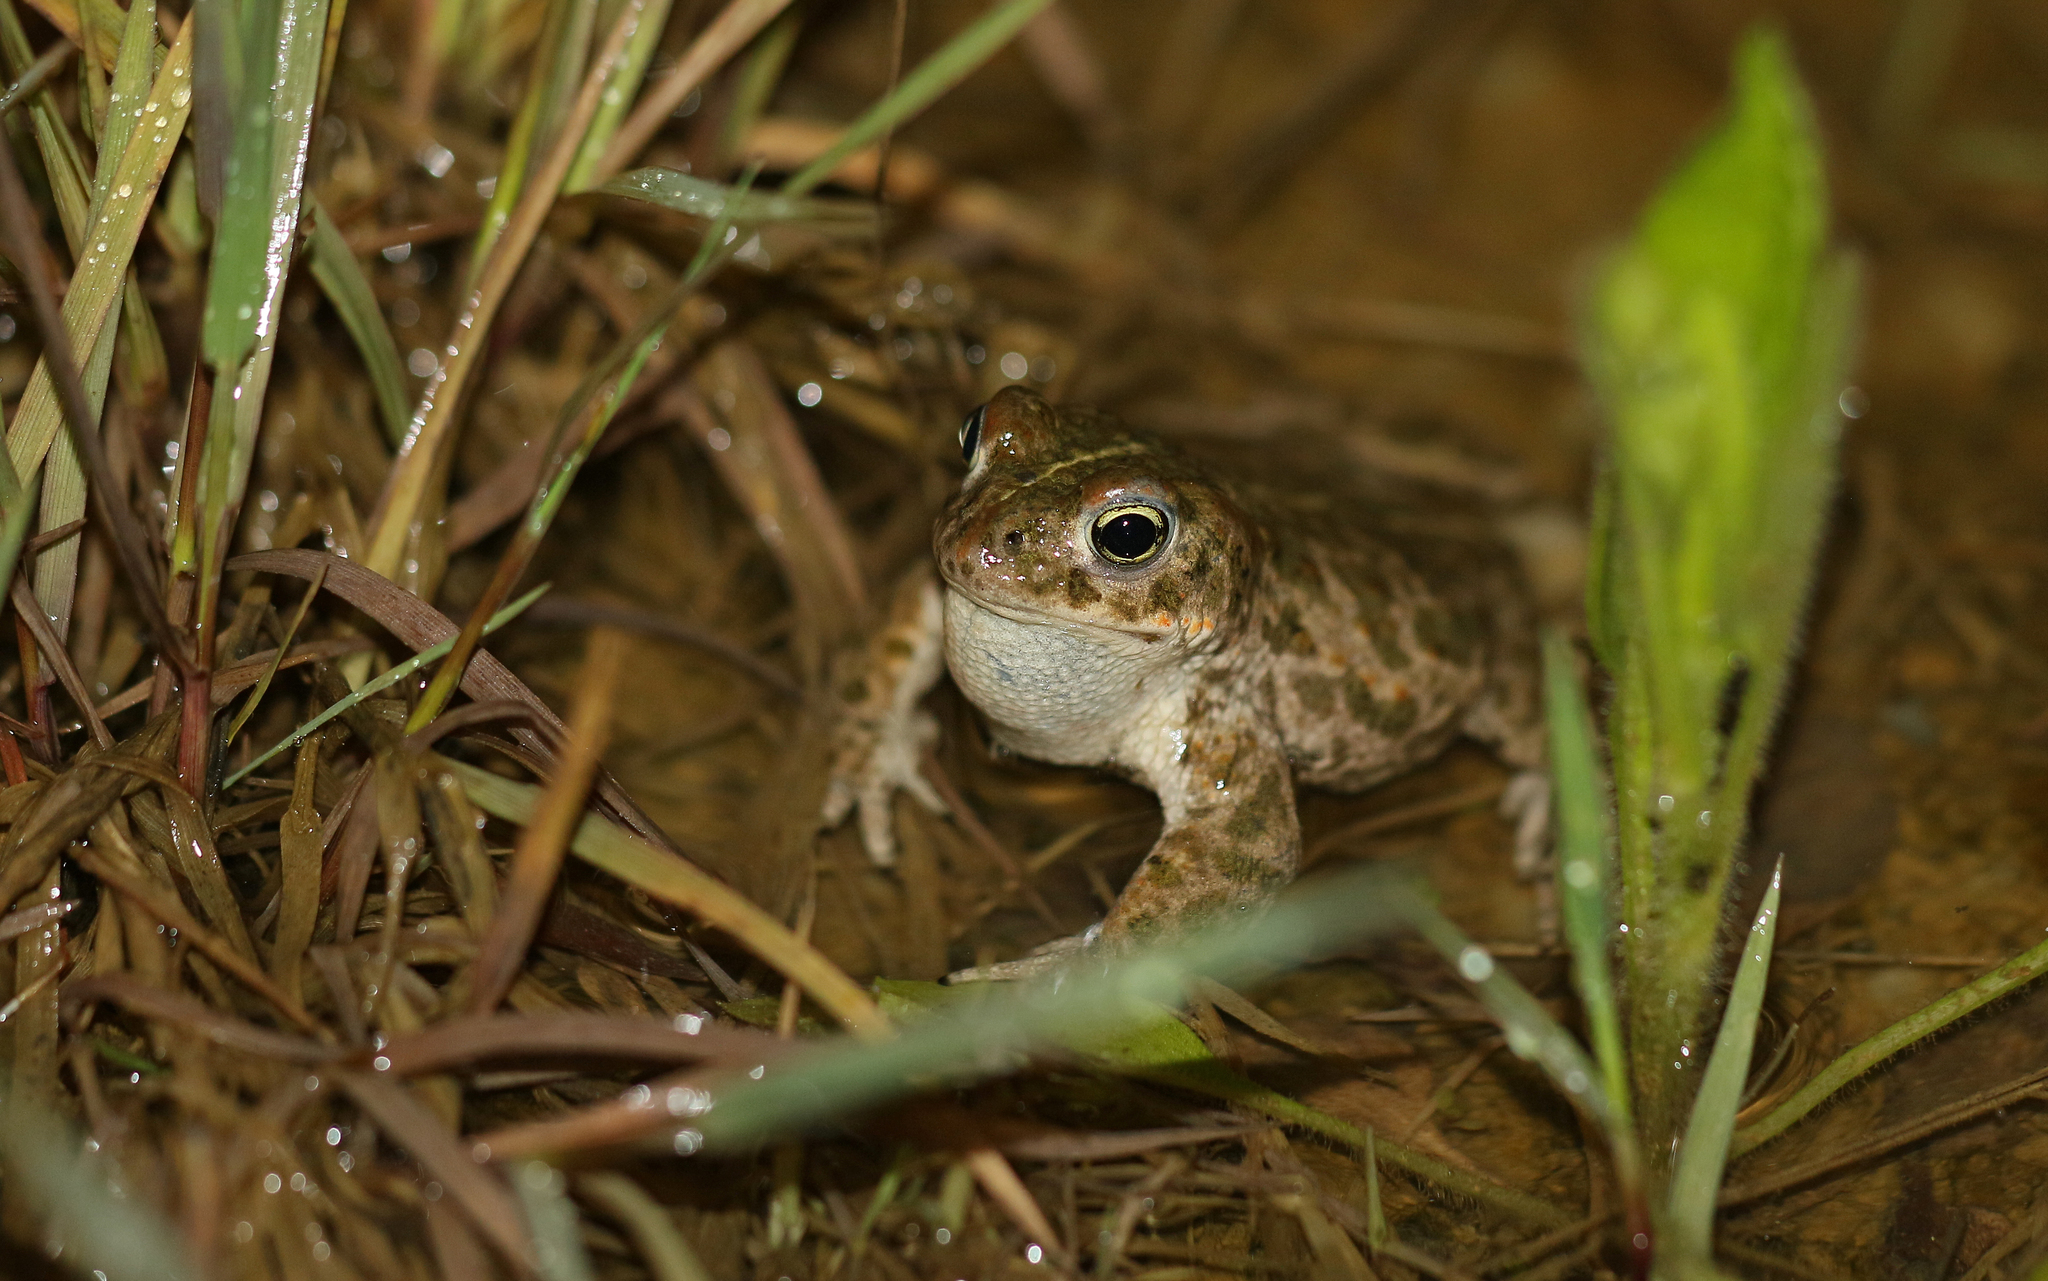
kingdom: Animalia
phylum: Chordata
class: Amphibia
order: Anura
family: Bufonidae
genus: Epidalea
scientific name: Epidalea calamita
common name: Natterjack toad
